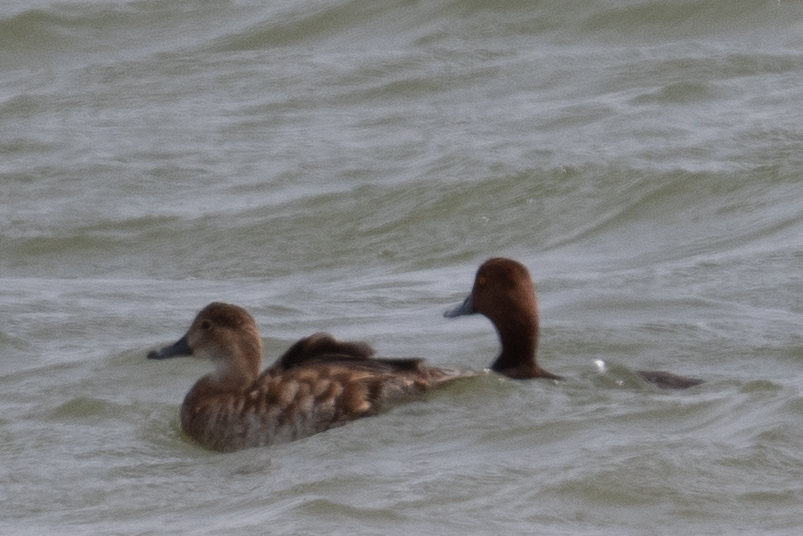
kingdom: Animalia
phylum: Chordata
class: Aves
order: Anseriformes
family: Anatidae
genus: Aythya
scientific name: Aythya americana
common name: Redhead
